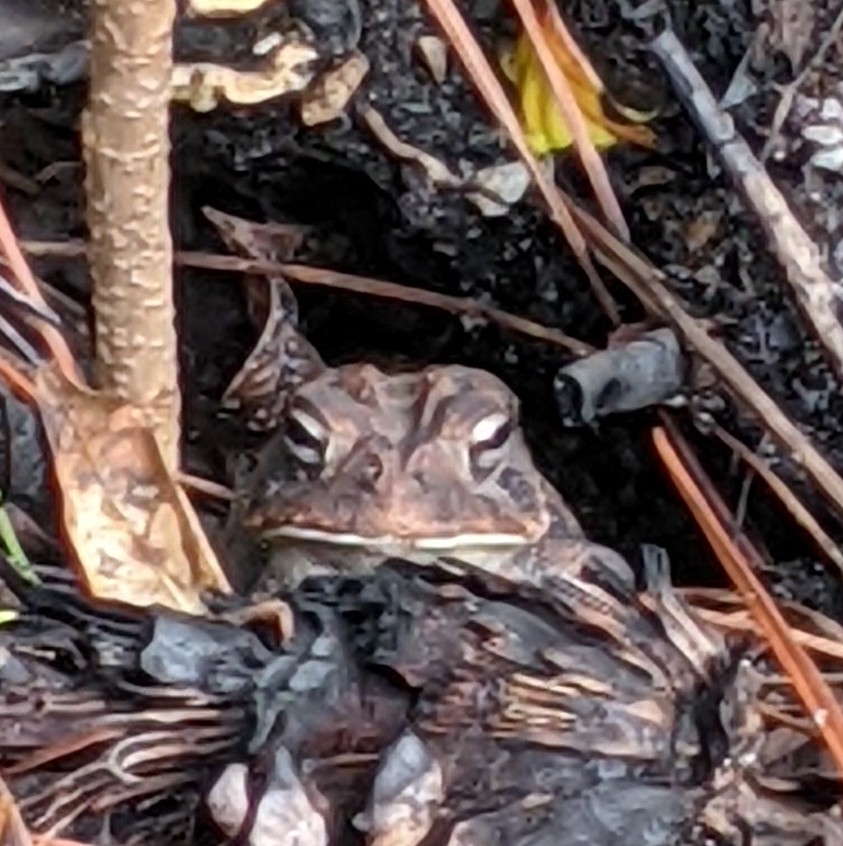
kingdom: Animalia
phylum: Chordata
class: Amphibia
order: Anura
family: Bufonidae
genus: Anaxyrus
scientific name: Anaxyrus terrestris
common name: Southern toad
